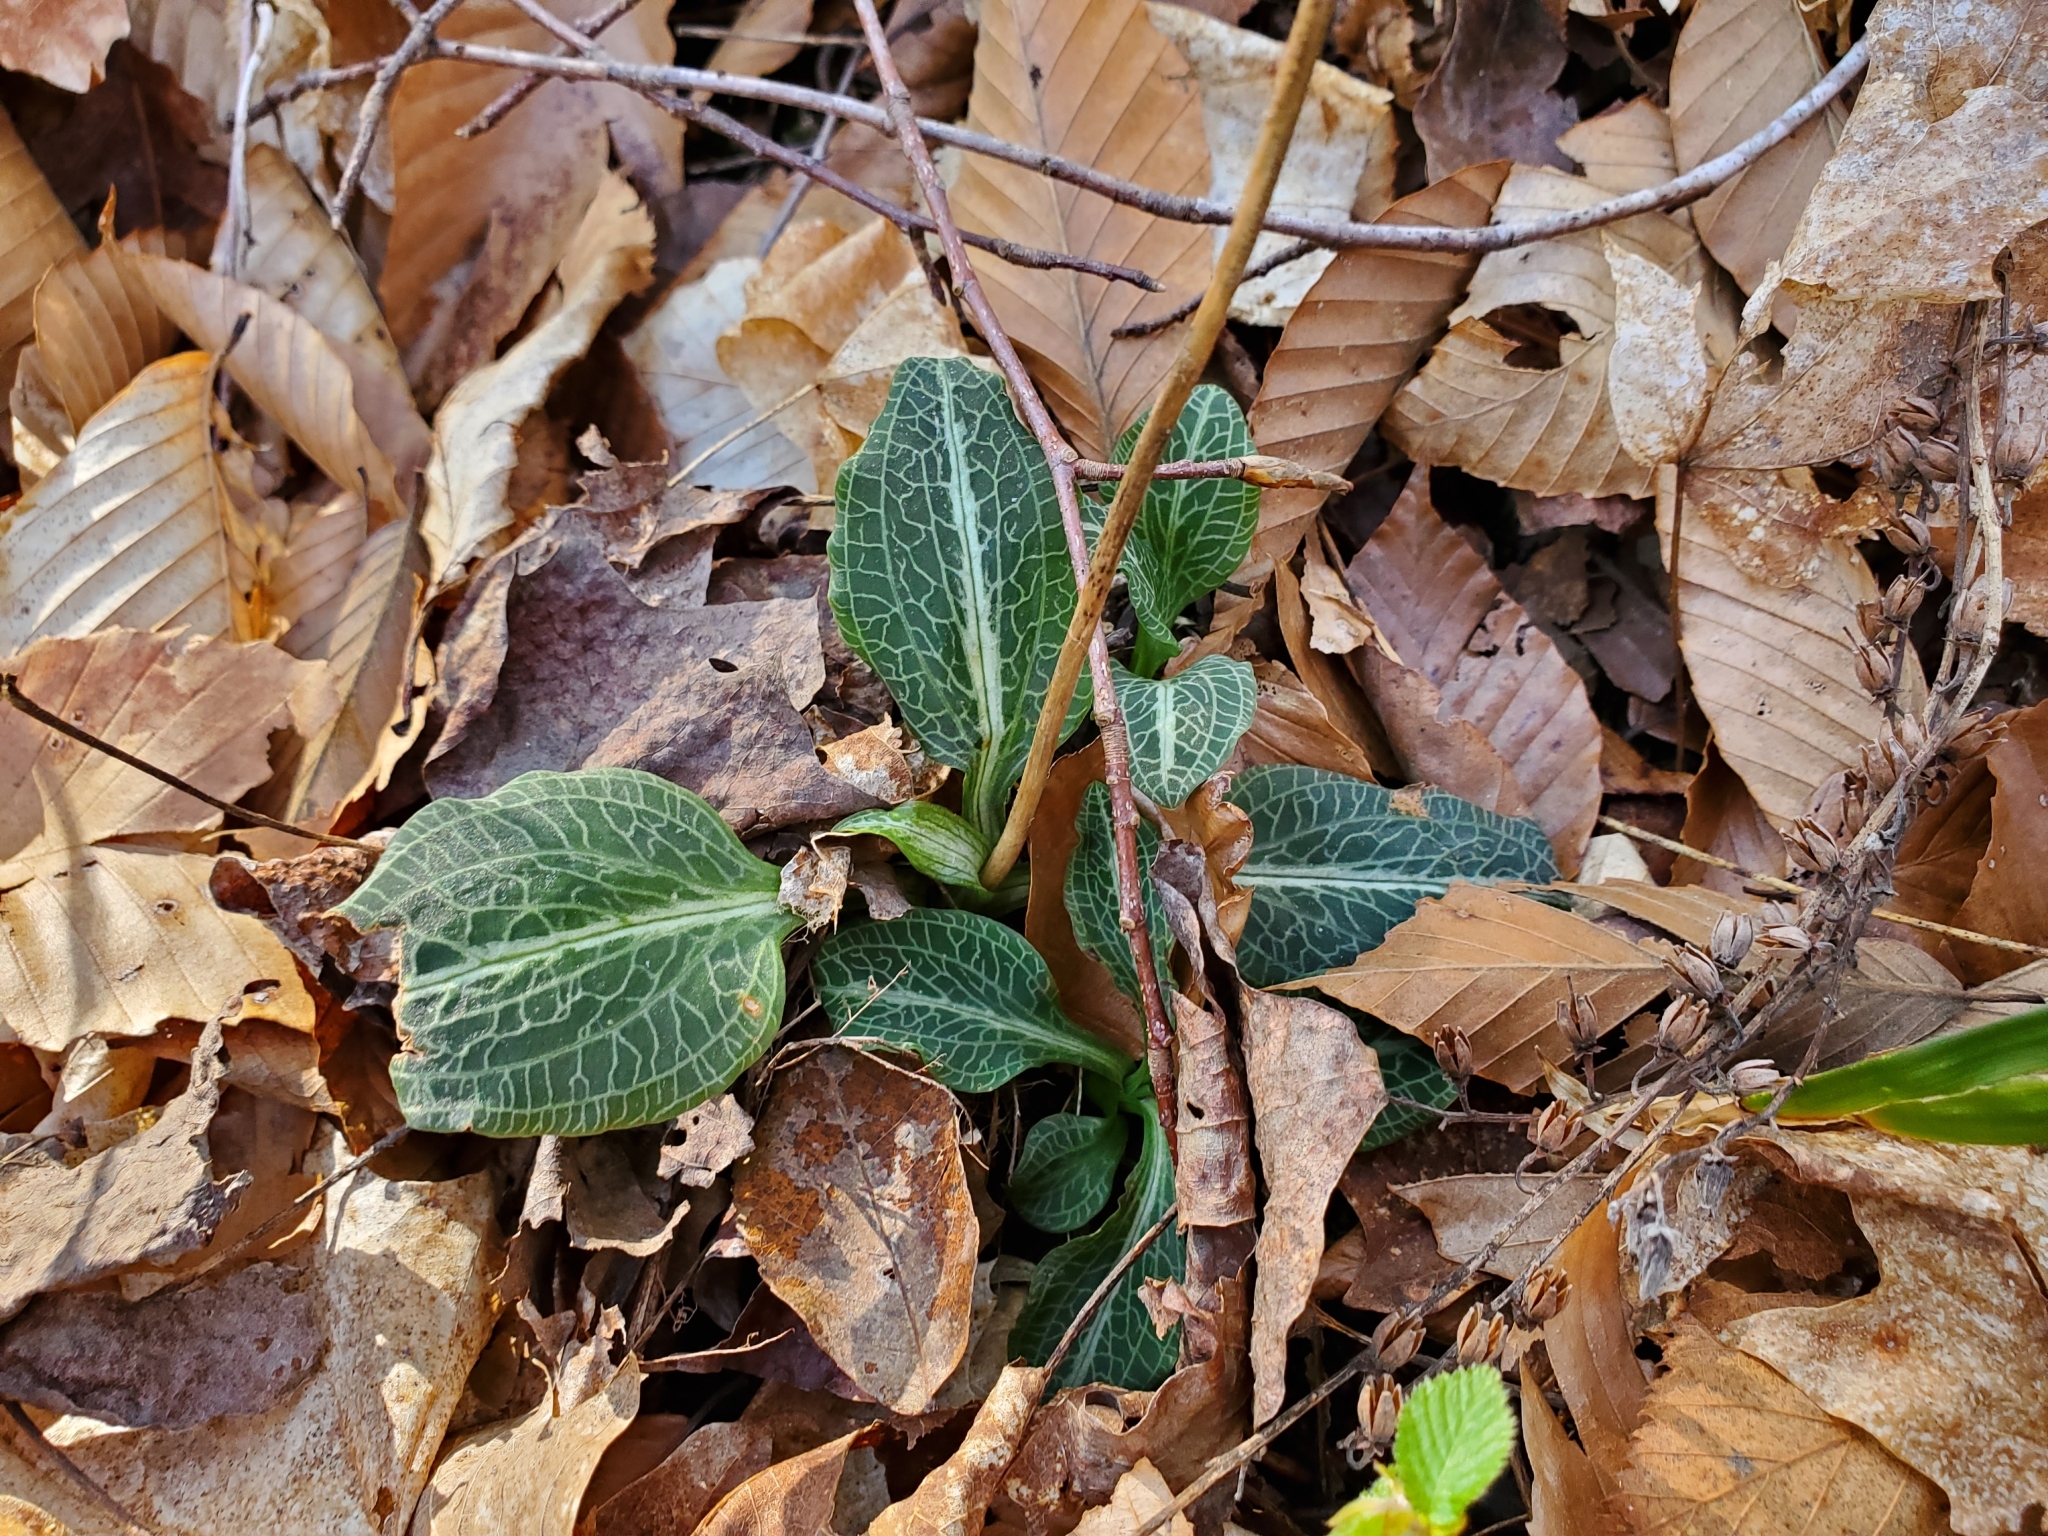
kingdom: Plantae
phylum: Tracheophyta
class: Liliopsida
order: Asparagales
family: Orchidaceae
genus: Goodyera
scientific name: Goodyera pubescens
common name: Downy rattlesnake-plantain
